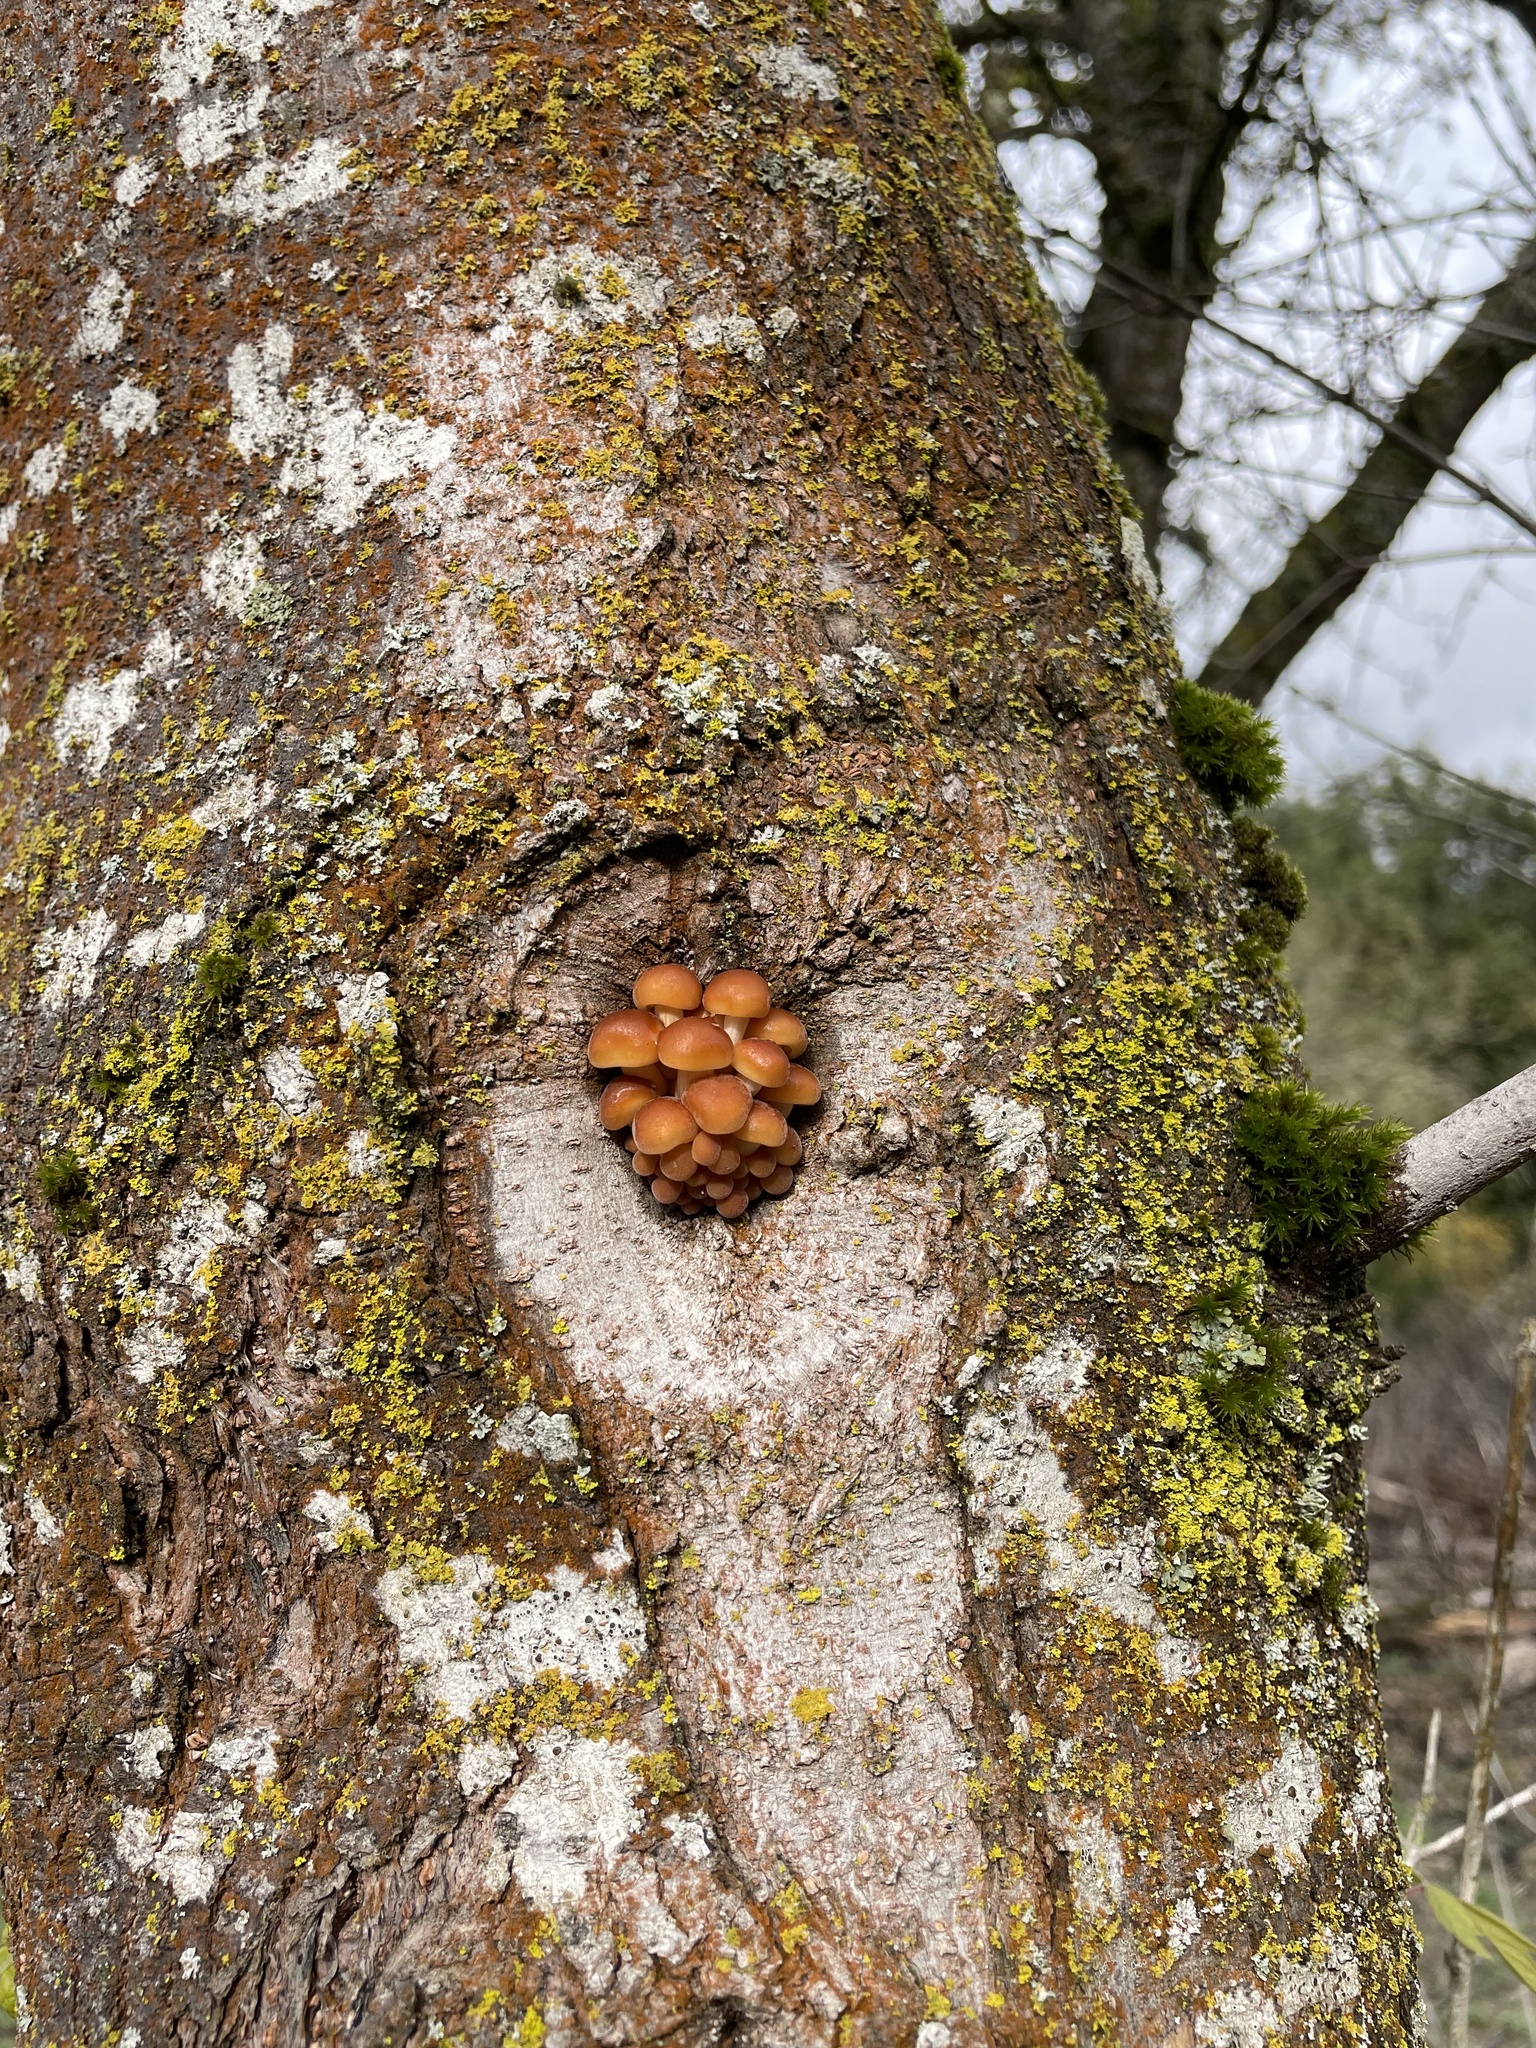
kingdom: Fungi
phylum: Basidiomycota
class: Agaricomycetes
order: Agaricales
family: Physalacriaceae
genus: Flammulina
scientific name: Flammulina velutipes
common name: Velvet shank
